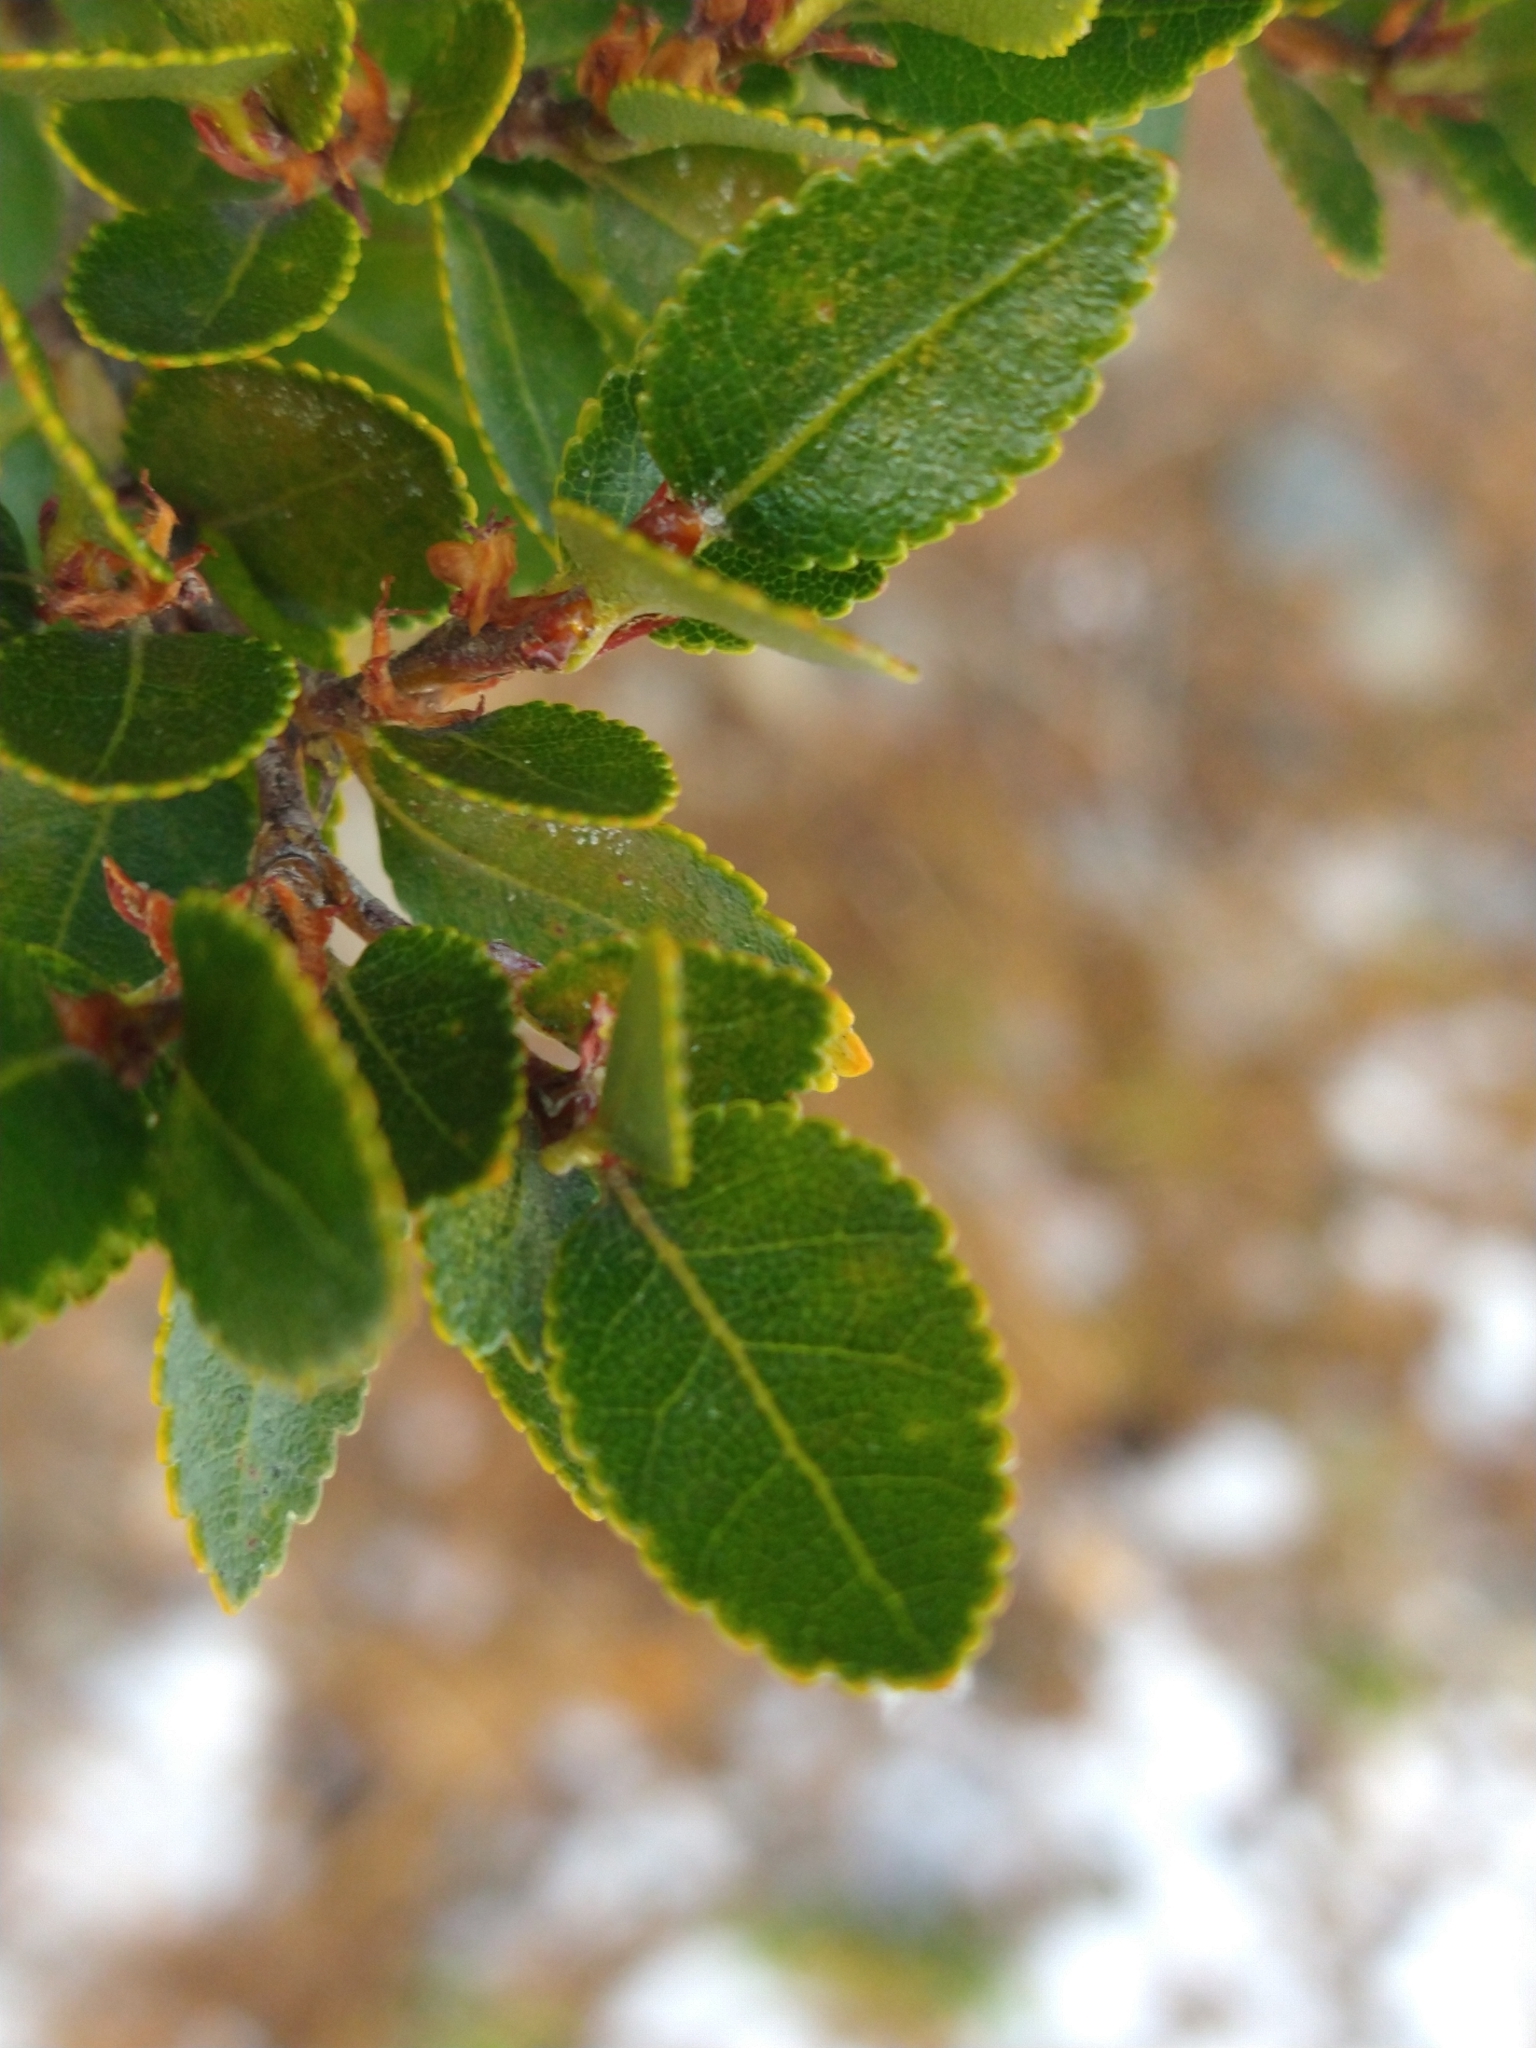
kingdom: Plantae
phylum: Tracheophyta
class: Magnoliopsida
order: Fagales
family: Nothofagaceae
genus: Nothofagus
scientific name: Nothofagus betuloides
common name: Magellan's beech
